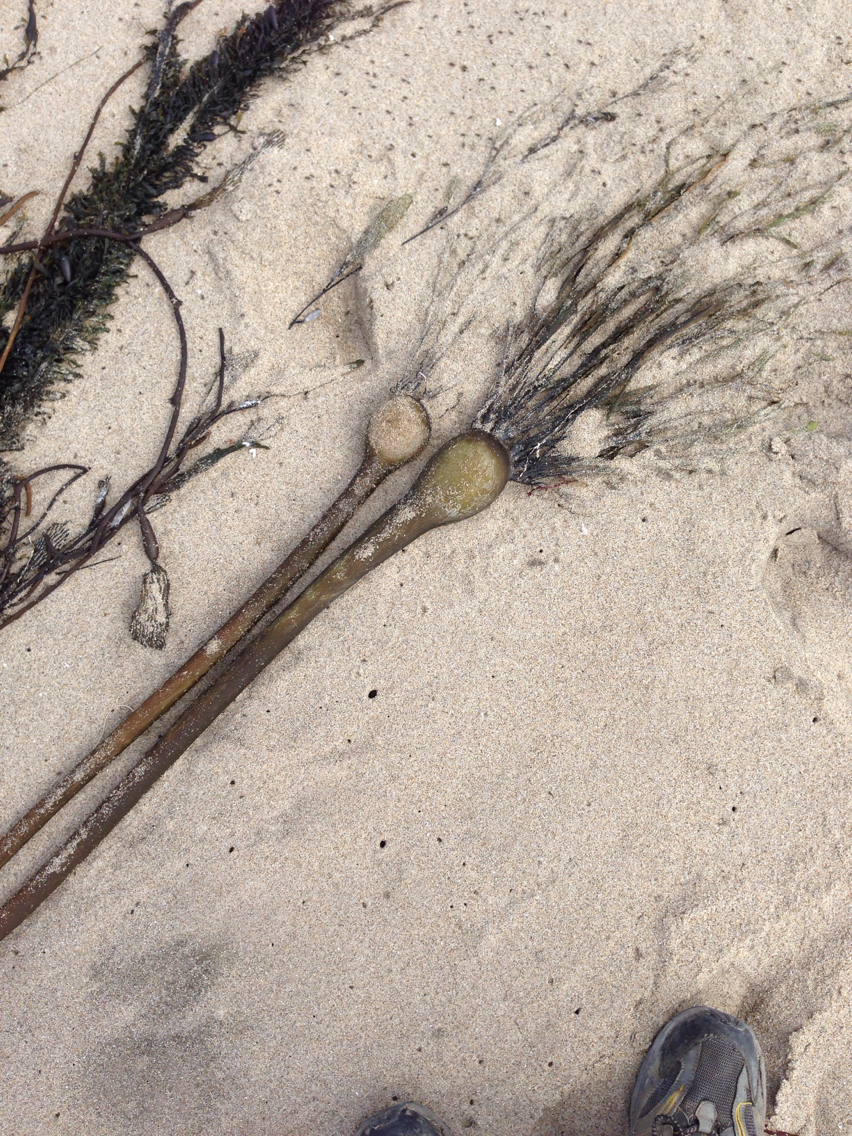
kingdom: Chromista
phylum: Ochrophyta
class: Phaeophyceae
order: Laminariales
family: Laminariaceae
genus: Nereocystis
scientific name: Nereocystis luetkeana
